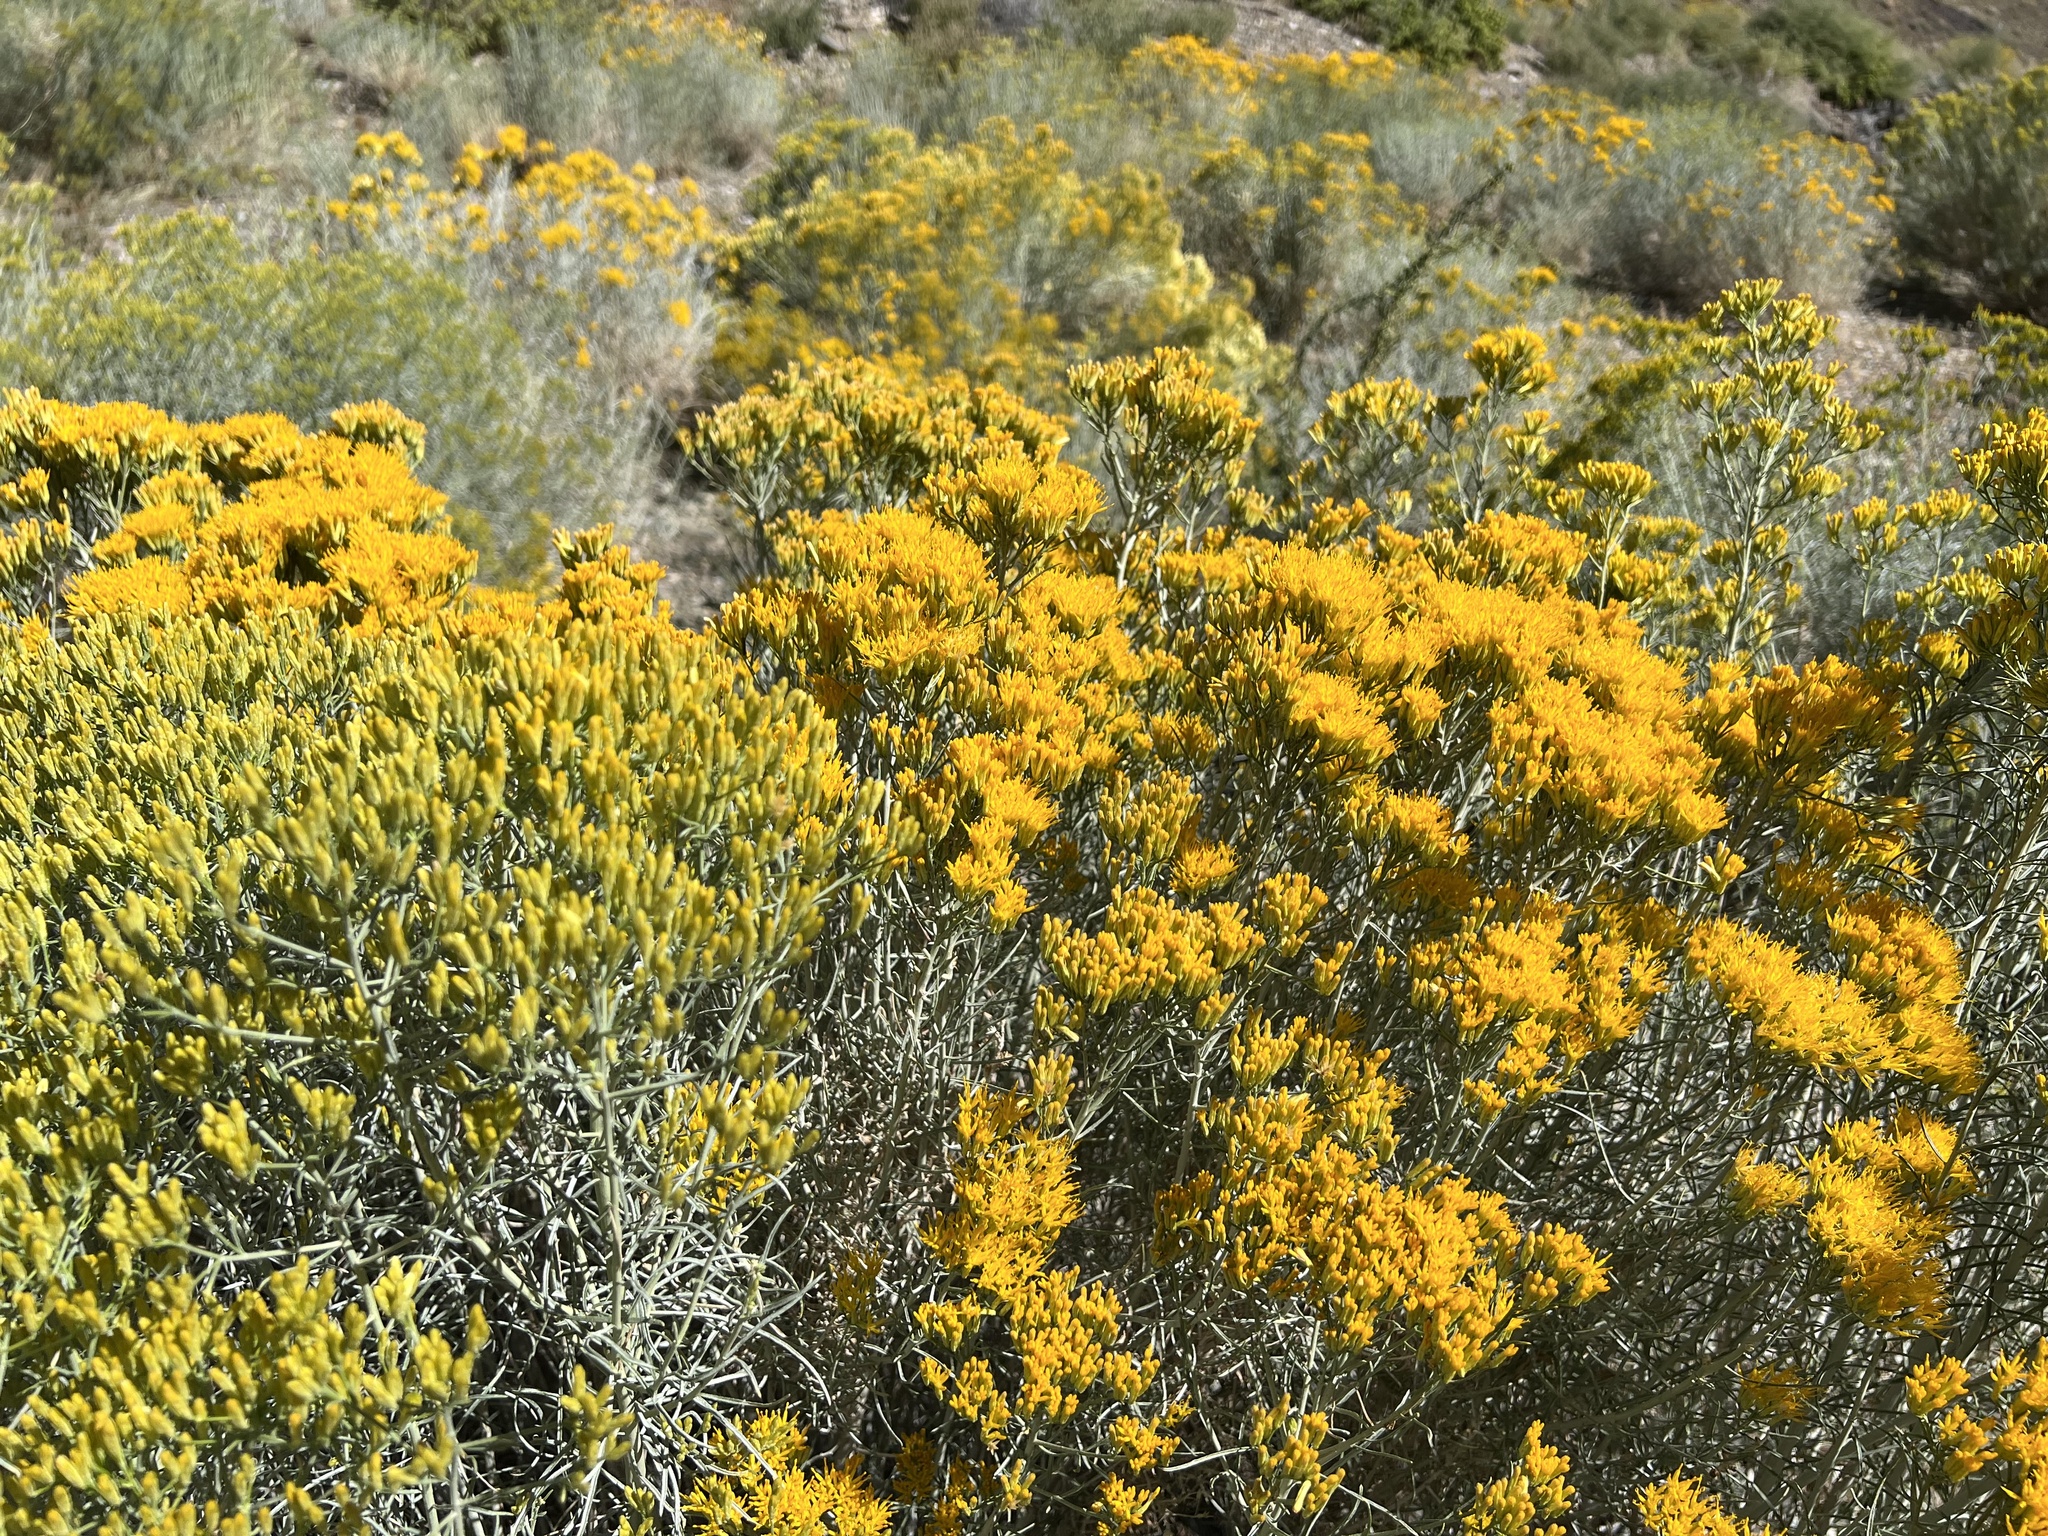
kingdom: Plantae
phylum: Tracheophyta
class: Magnoliopsida
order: Asterales
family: Asteraceae
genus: Ericameria
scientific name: Ericameria nauseosa
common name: Rubber rabbitbrush
